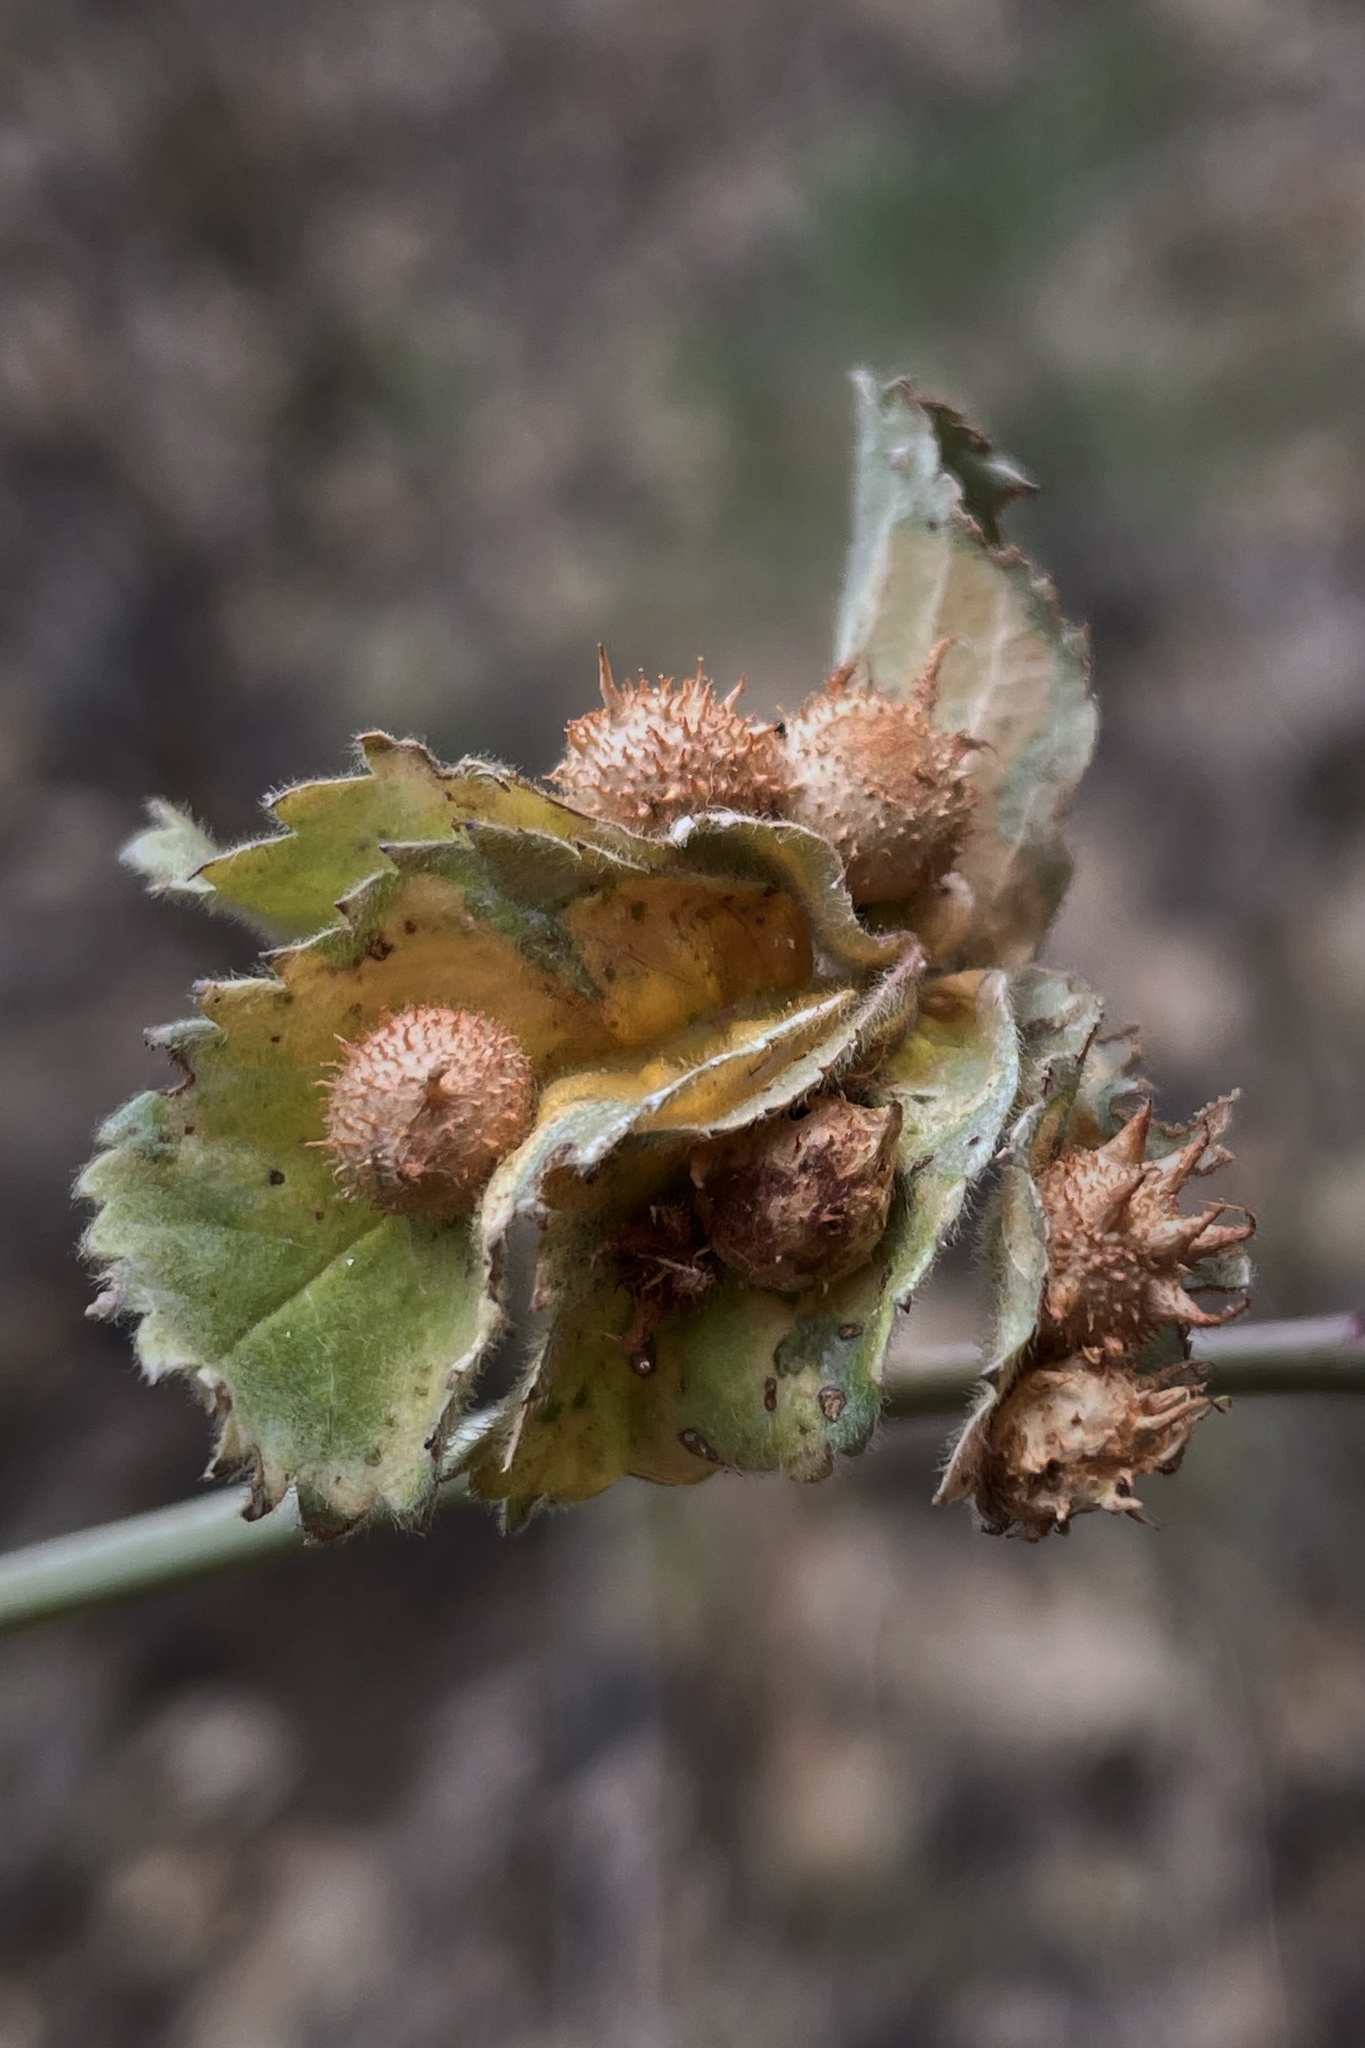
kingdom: Animalia
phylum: Arthropoda
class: Insecta
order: Hymenoptera
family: Cynipidae
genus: Diplolepis
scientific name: Diplolepis polita
